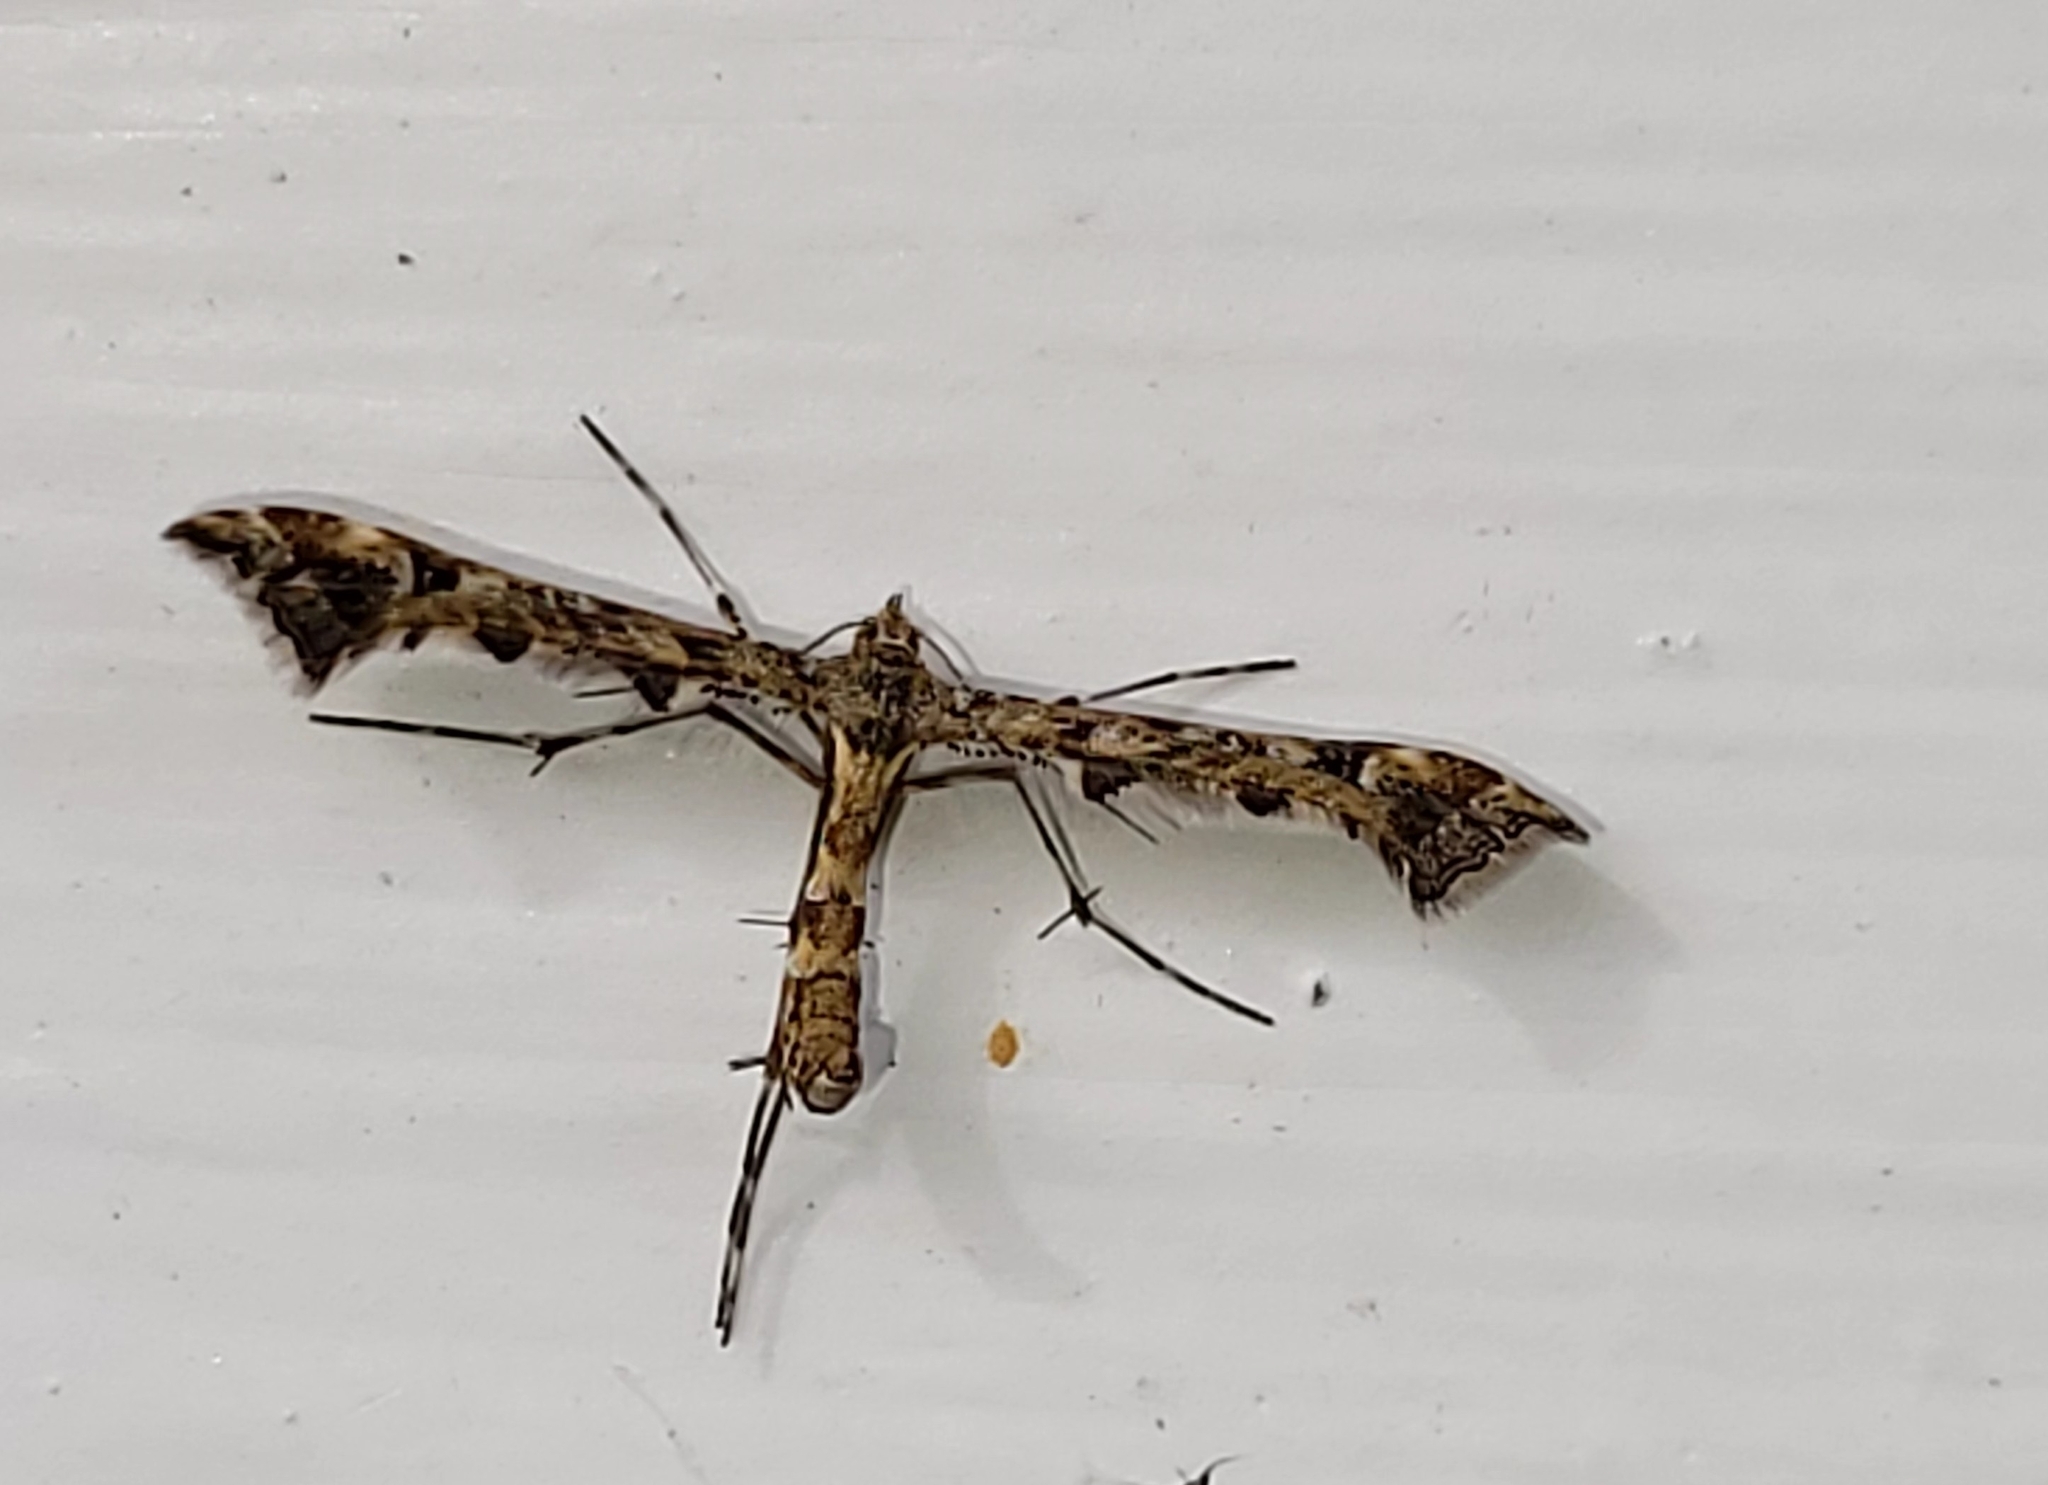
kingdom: Animalia
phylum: Arthropoda
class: Insecta
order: Lepidoptera
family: Pterophoridae
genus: Amblyptilia
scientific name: Amblyptilia pica
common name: Geranium plume moth
